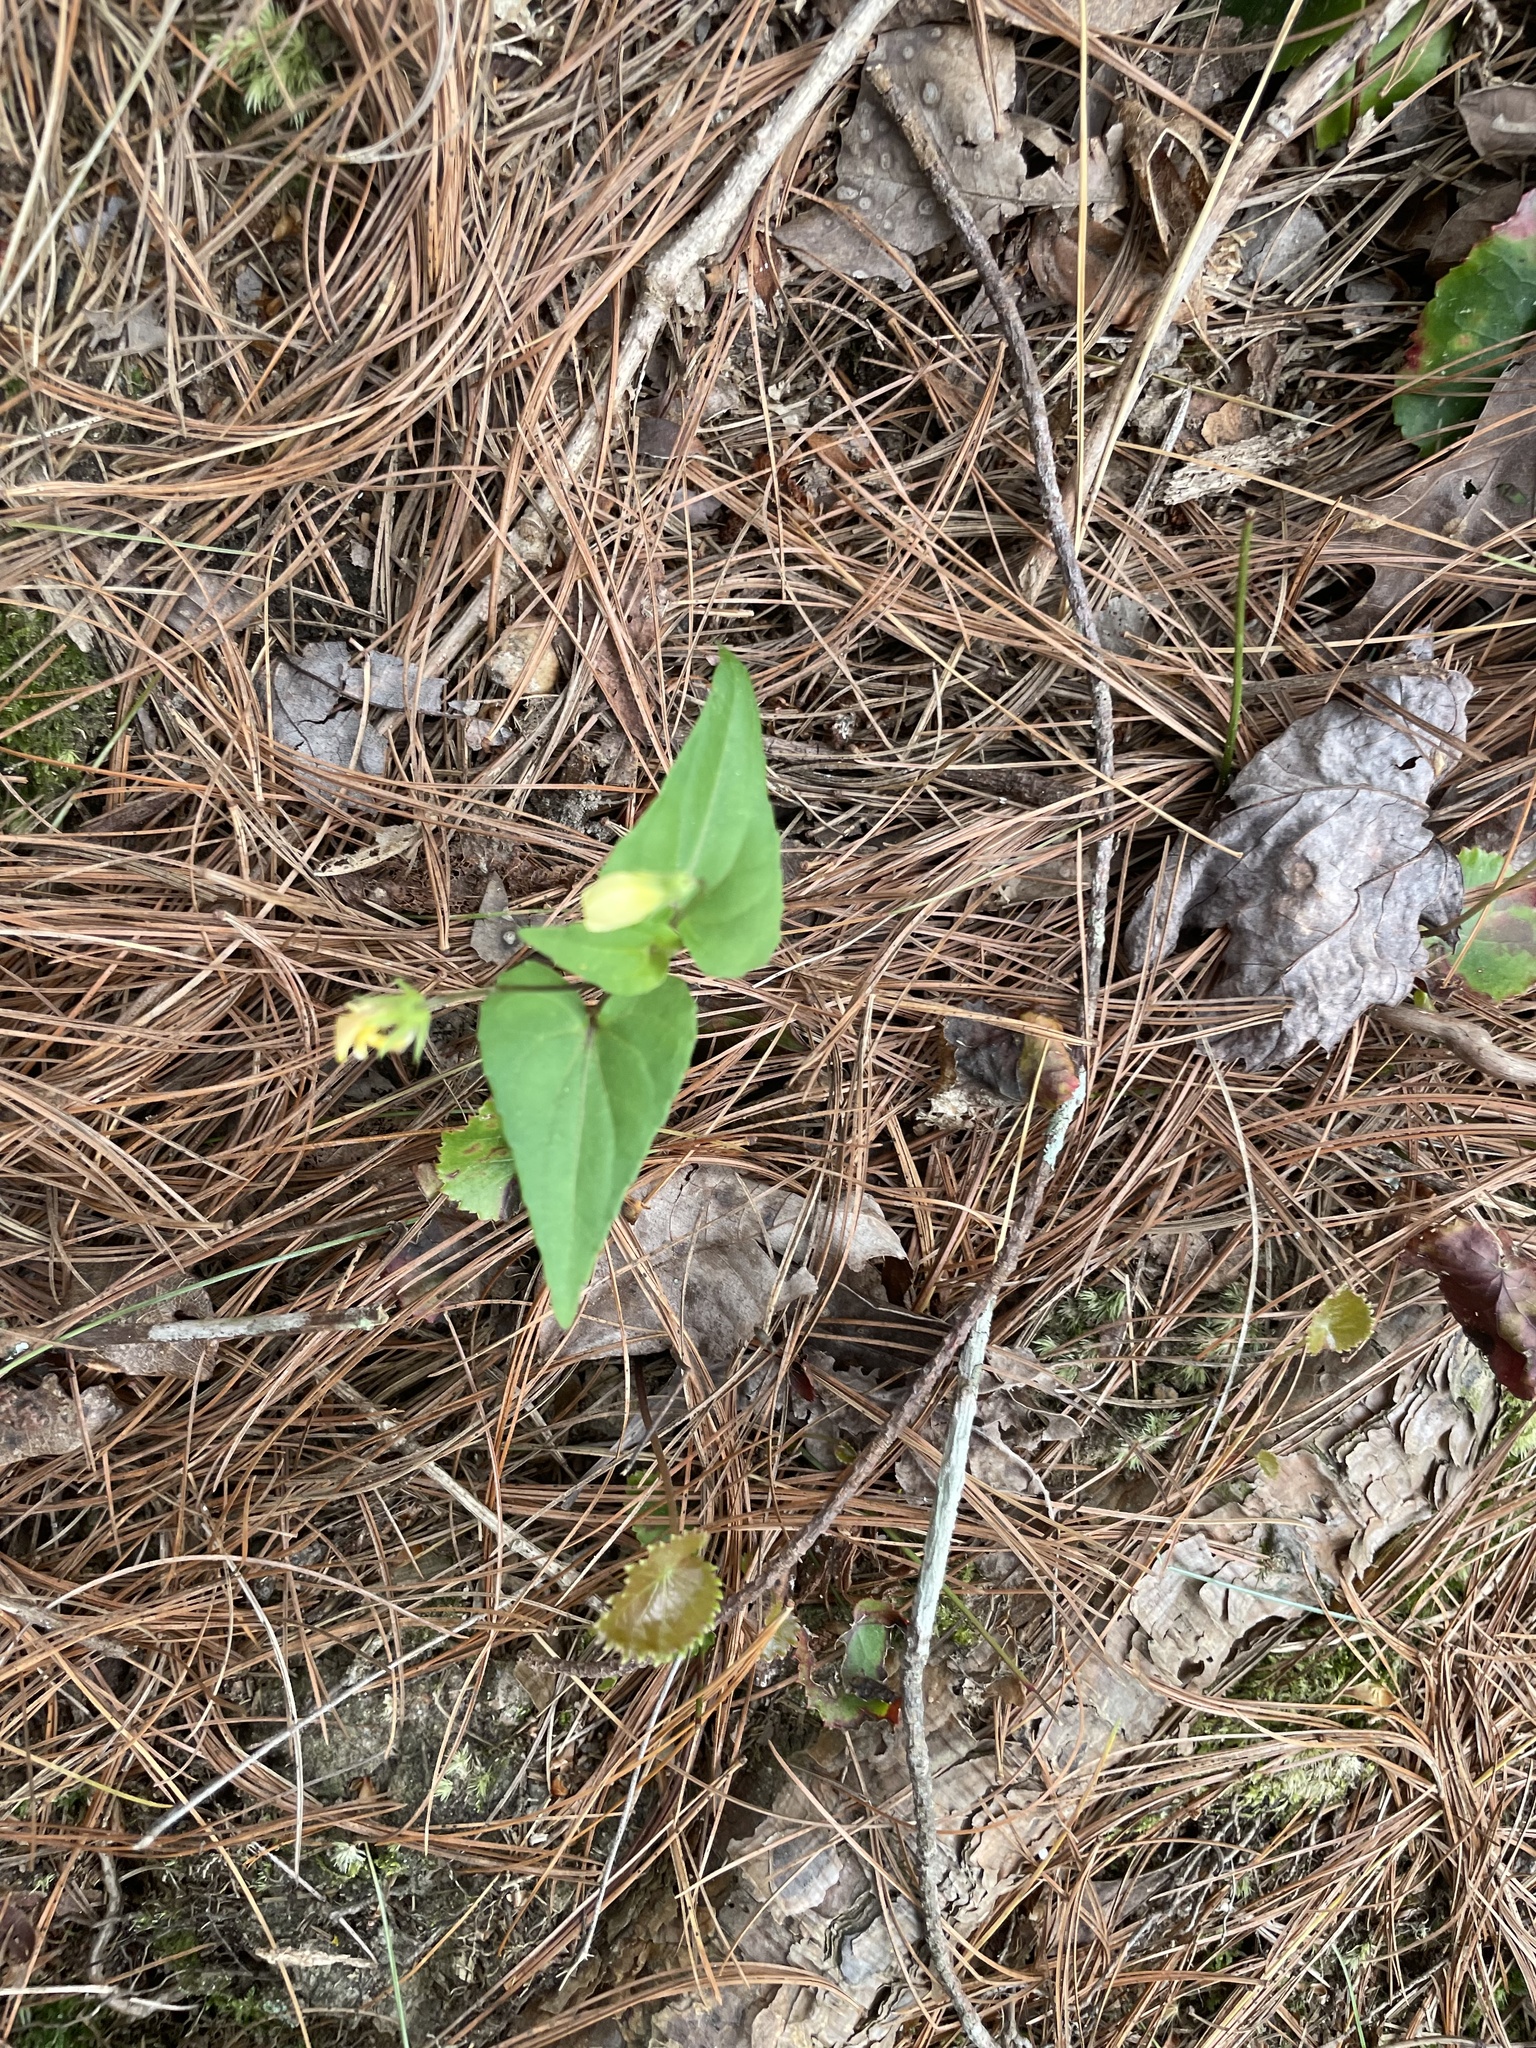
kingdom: Plantae
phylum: Tracheophyta
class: Magnoliopsida
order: Malpighiales
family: Violaceae
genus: Viola
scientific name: Viola hastata
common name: Spear-leaf violet
